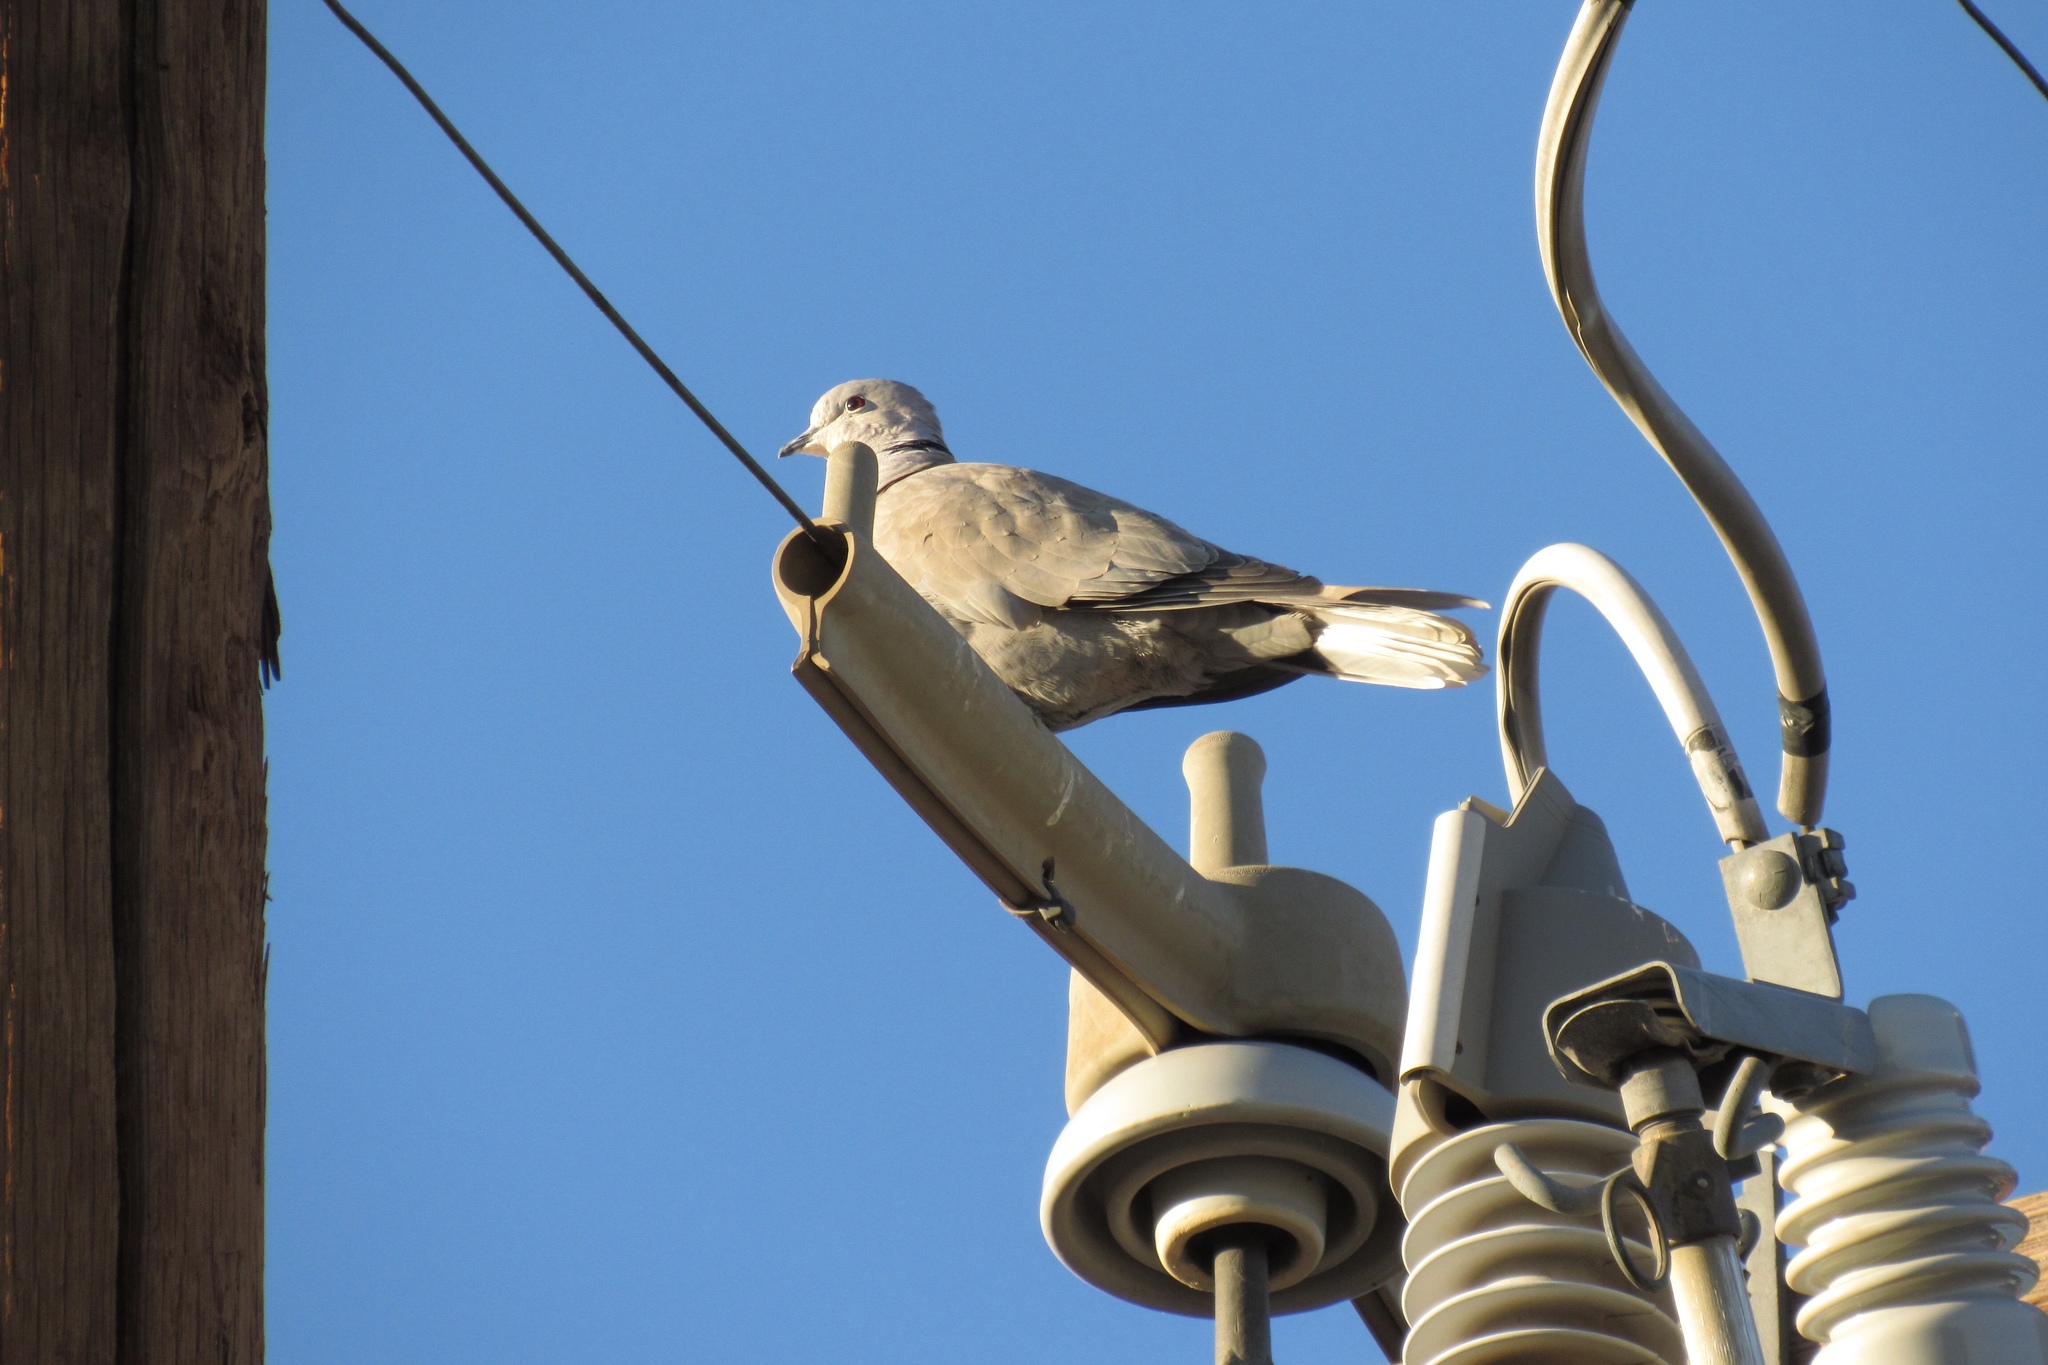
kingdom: Animalia
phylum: Chordata
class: Aves
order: Columbiformes
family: Columbidae
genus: Streptopelia
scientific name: Streptopelia decaocto
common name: Eurasian collared dove
